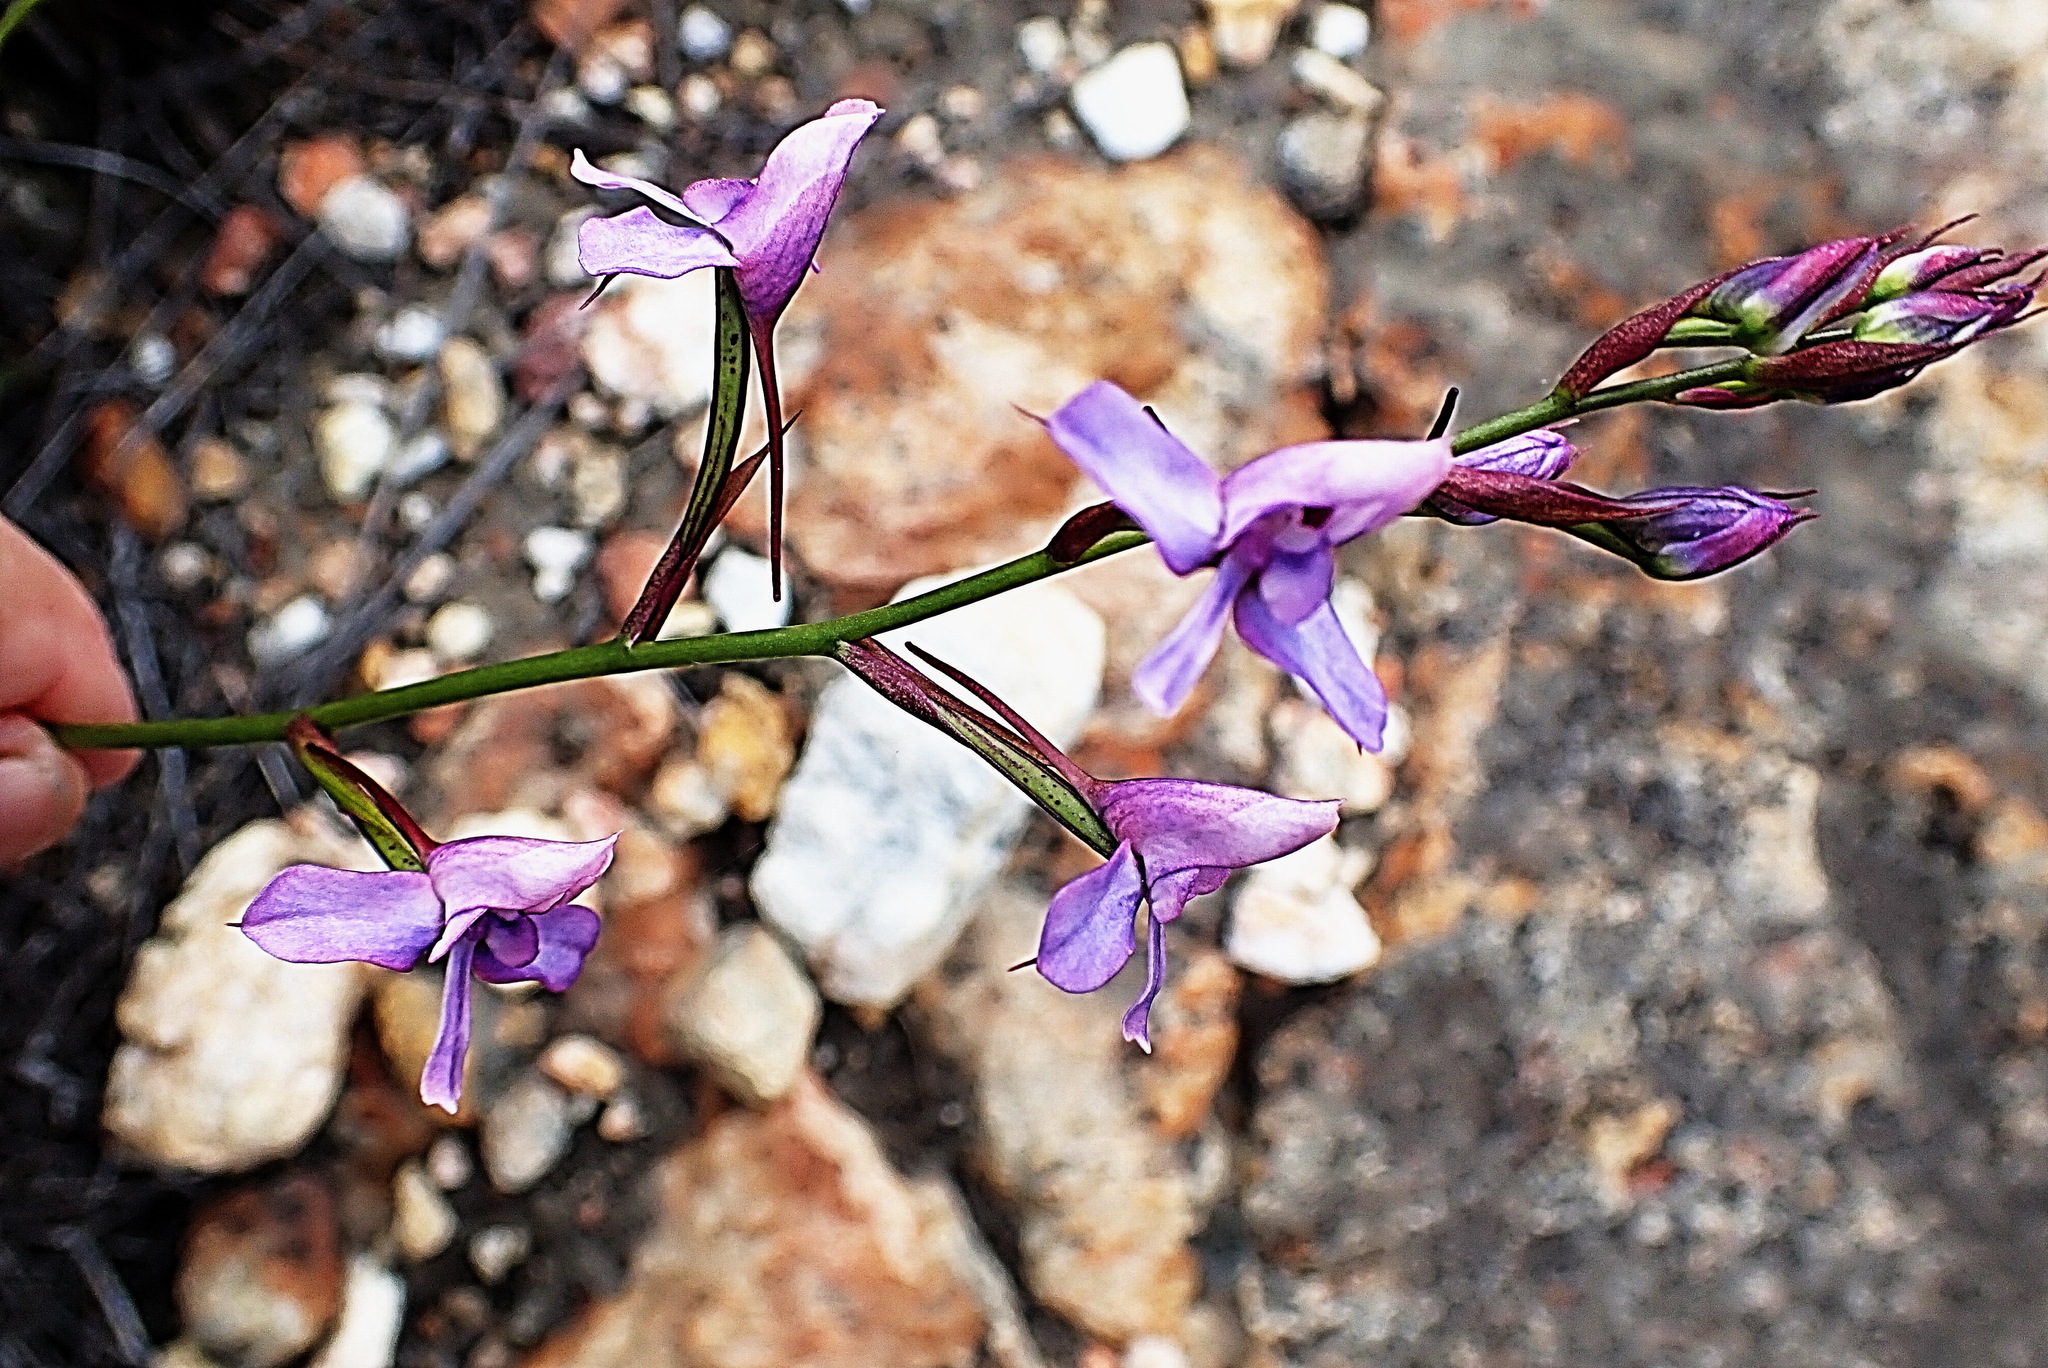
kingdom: Plantae
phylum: Tracheophyta
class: Liliopsida
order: Asparagales
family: Orchidaceae
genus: Disa
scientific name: Disa arida
